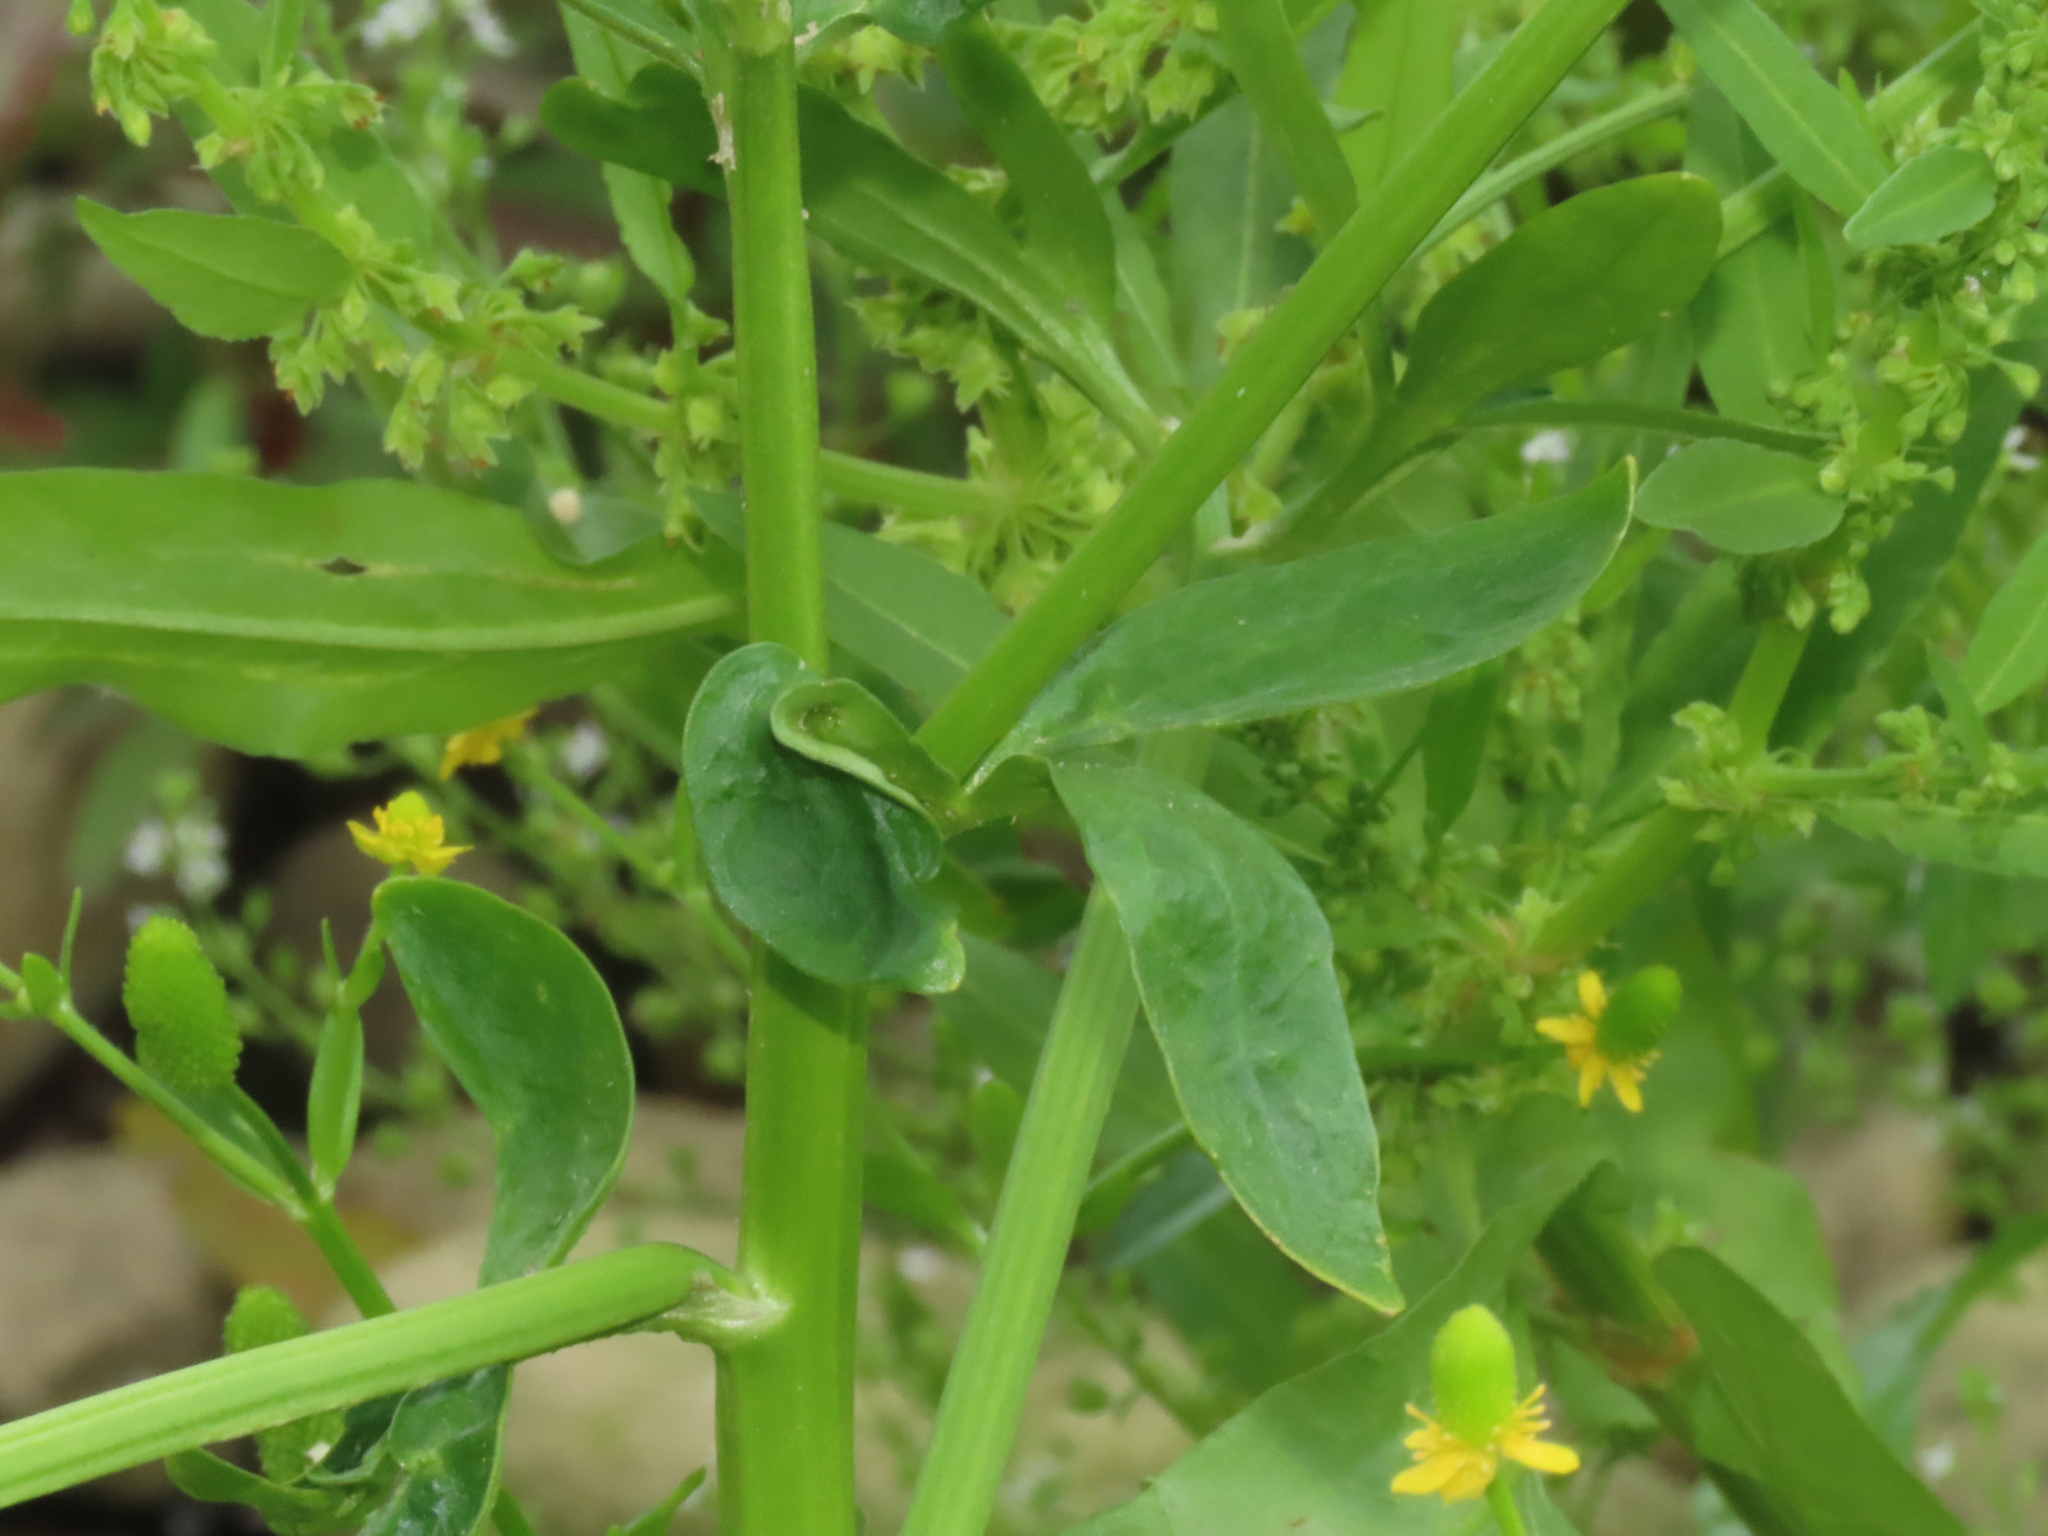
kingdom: Plantae
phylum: Tracheophyta
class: Magnoliopsida
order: Ranunculales
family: Ranunculaceae
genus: Ranunculus
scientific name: Ranunculus sceleratus
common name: Celery-leaved buttercup
